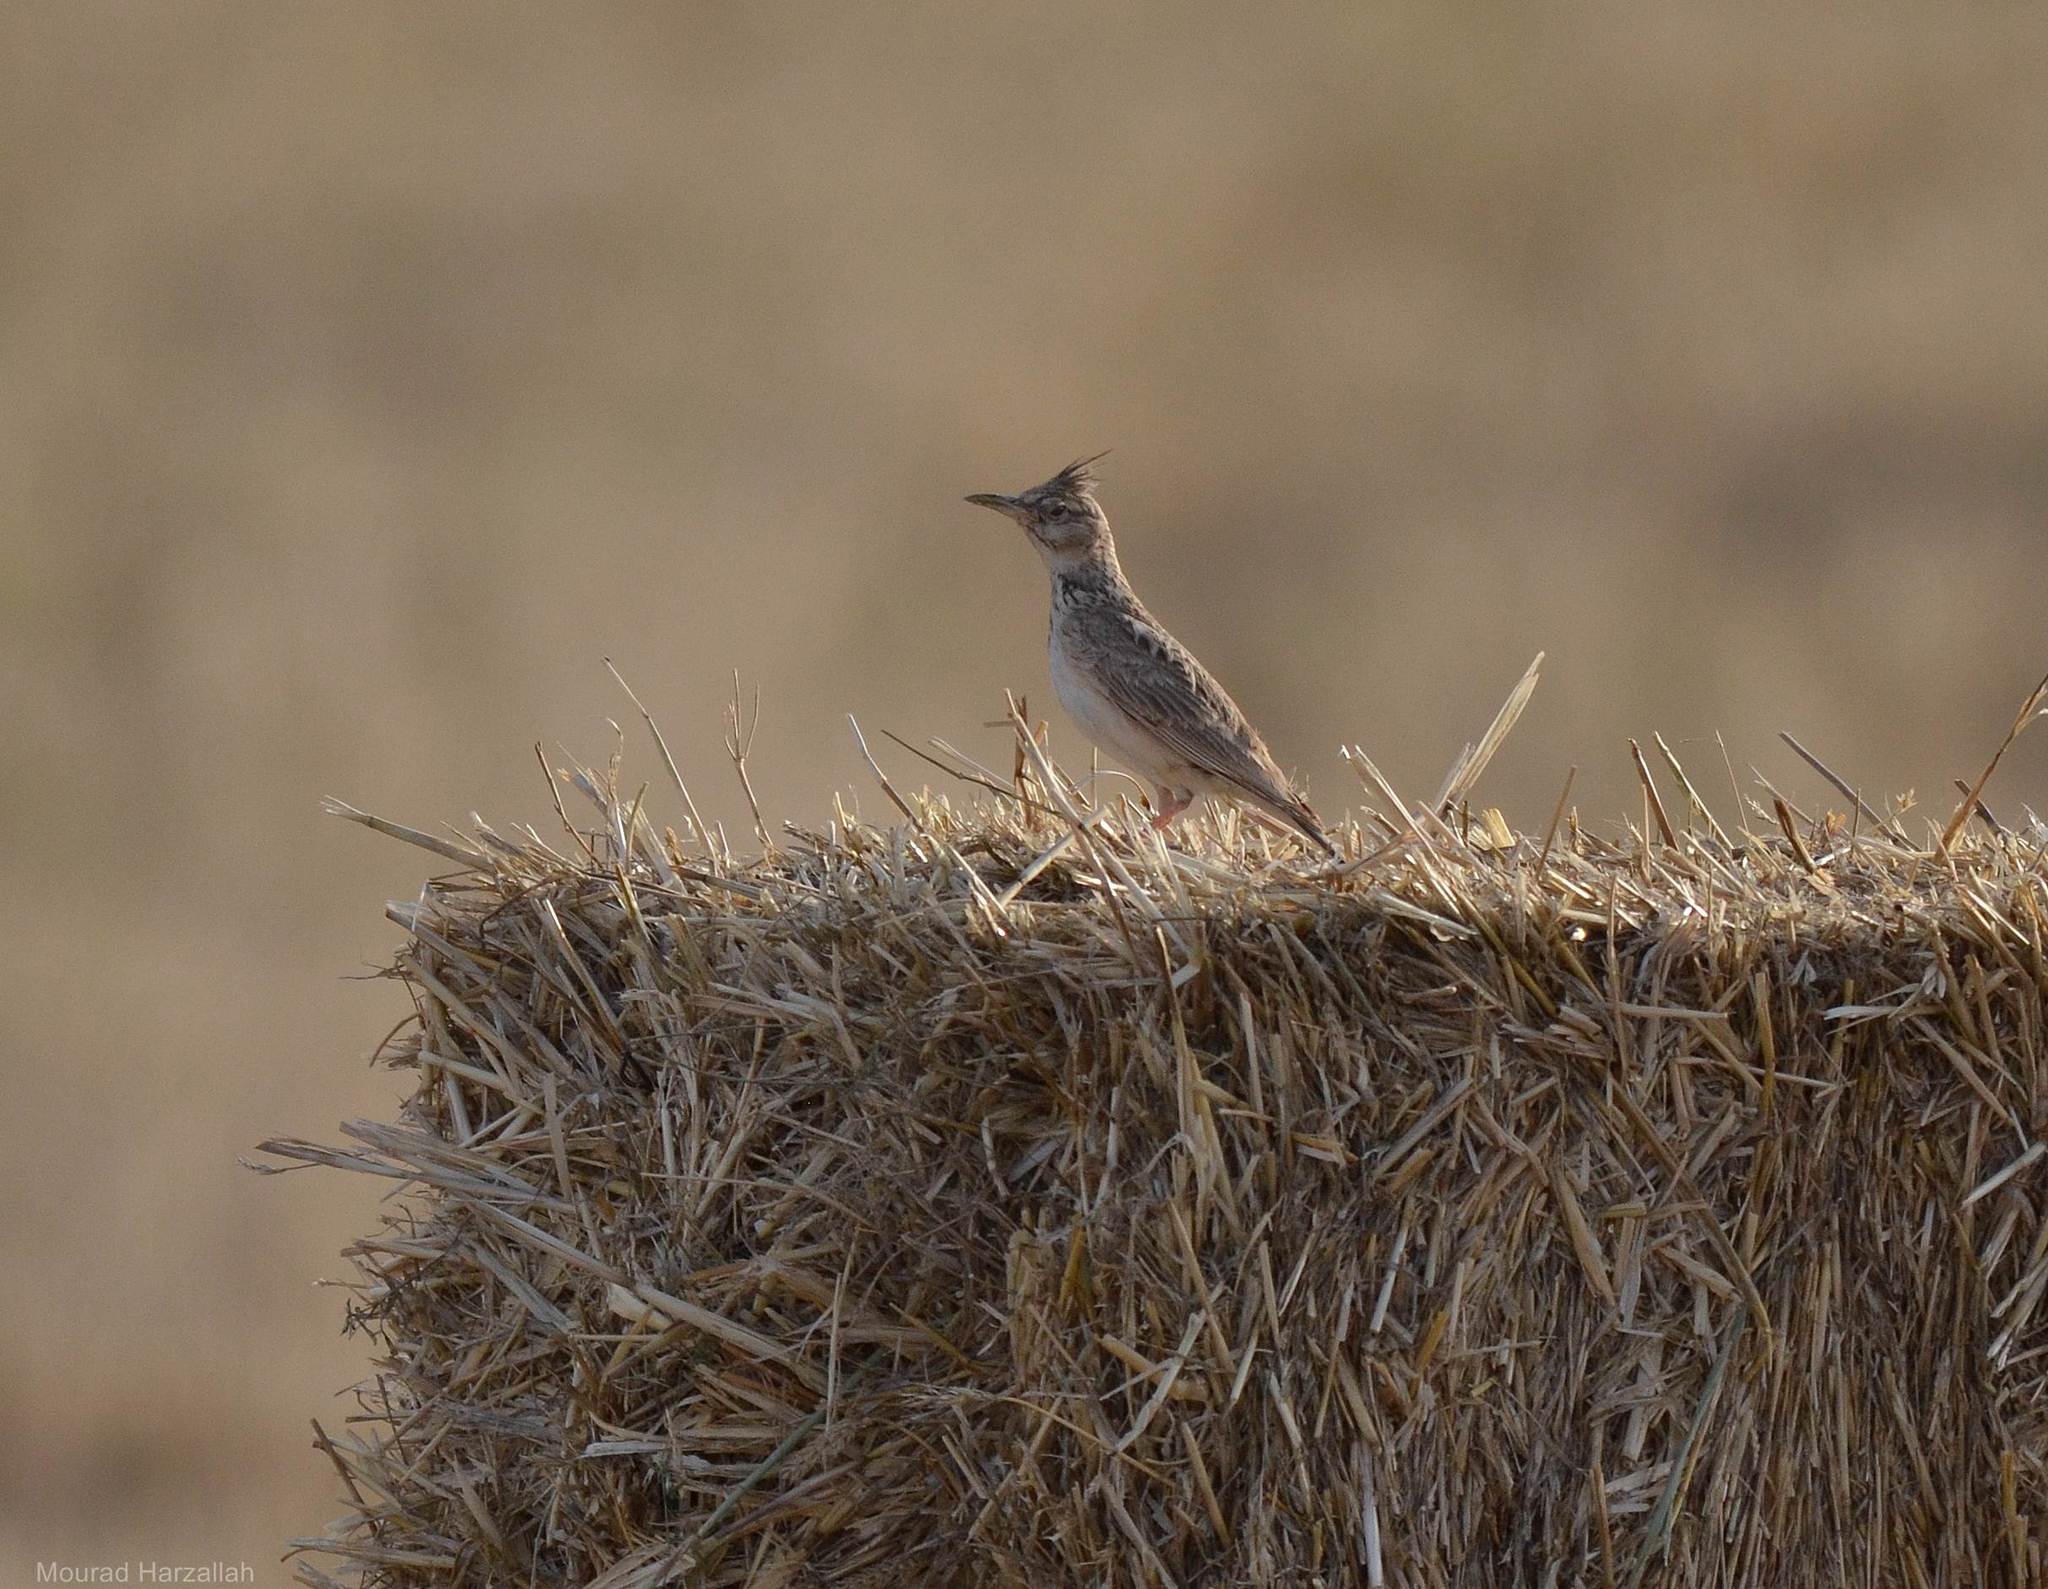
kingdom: Animalia
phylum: Chordata
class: Aves
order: Passeriformes
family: Alaudidae
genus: Galerida
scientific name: Galerida cristata
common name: Crested lark
